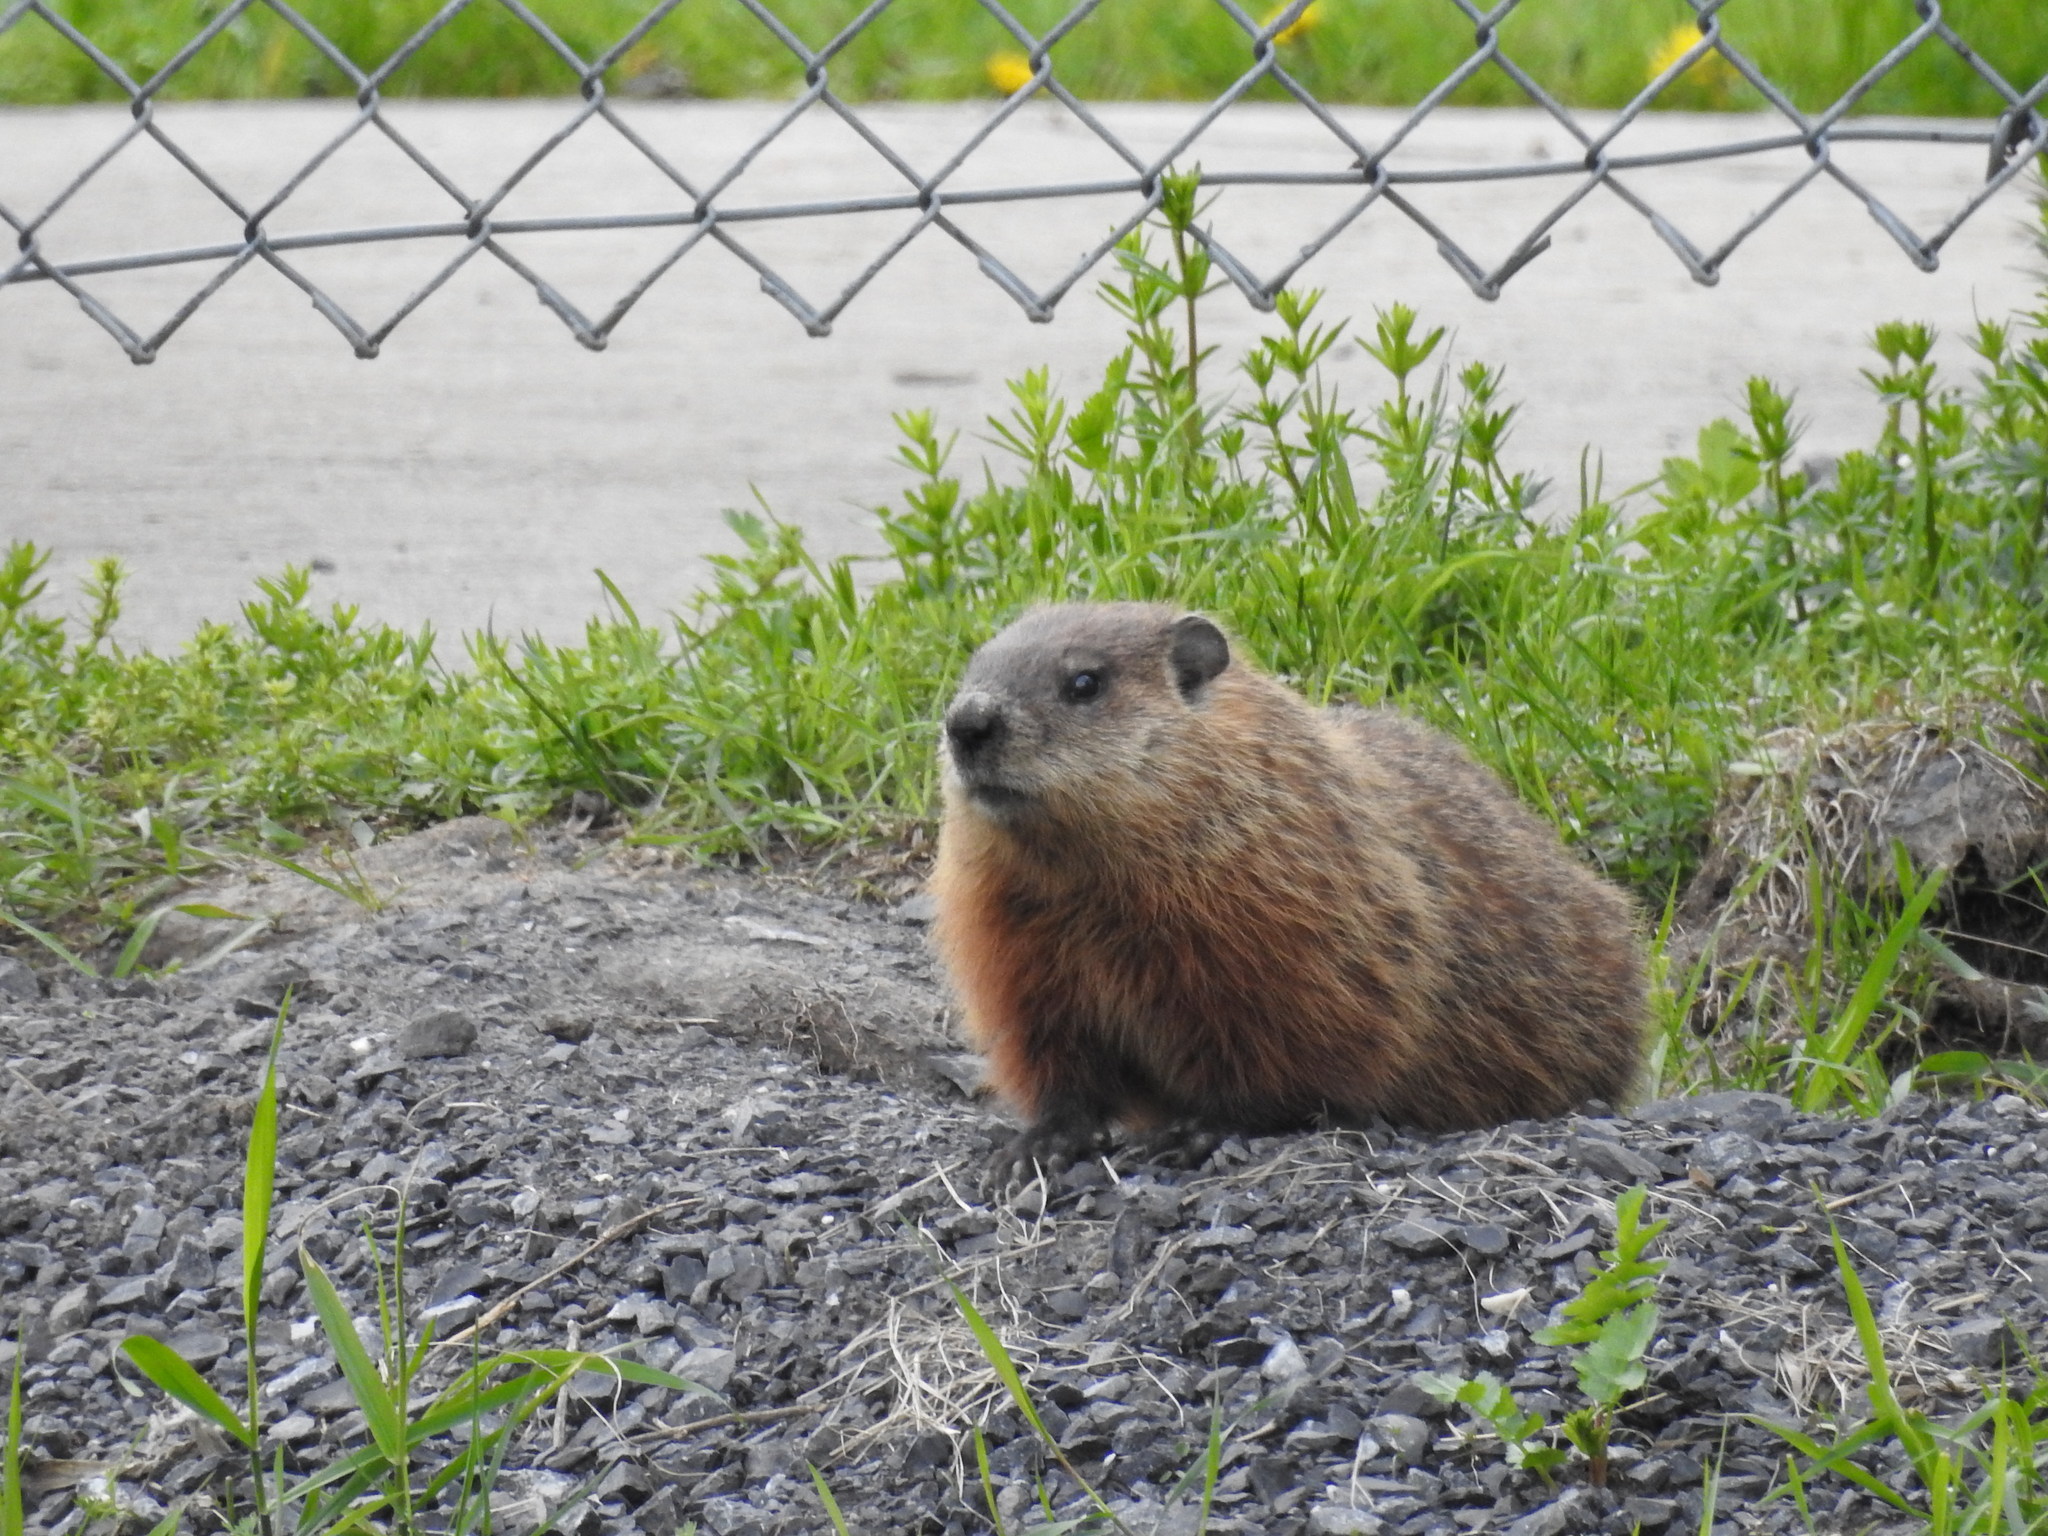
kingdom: Animalia
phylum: Chordata
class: Mammalia
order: Rodentia
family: Sciuridae
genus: Marmota
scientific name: Marmota monax
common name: Groundhog
